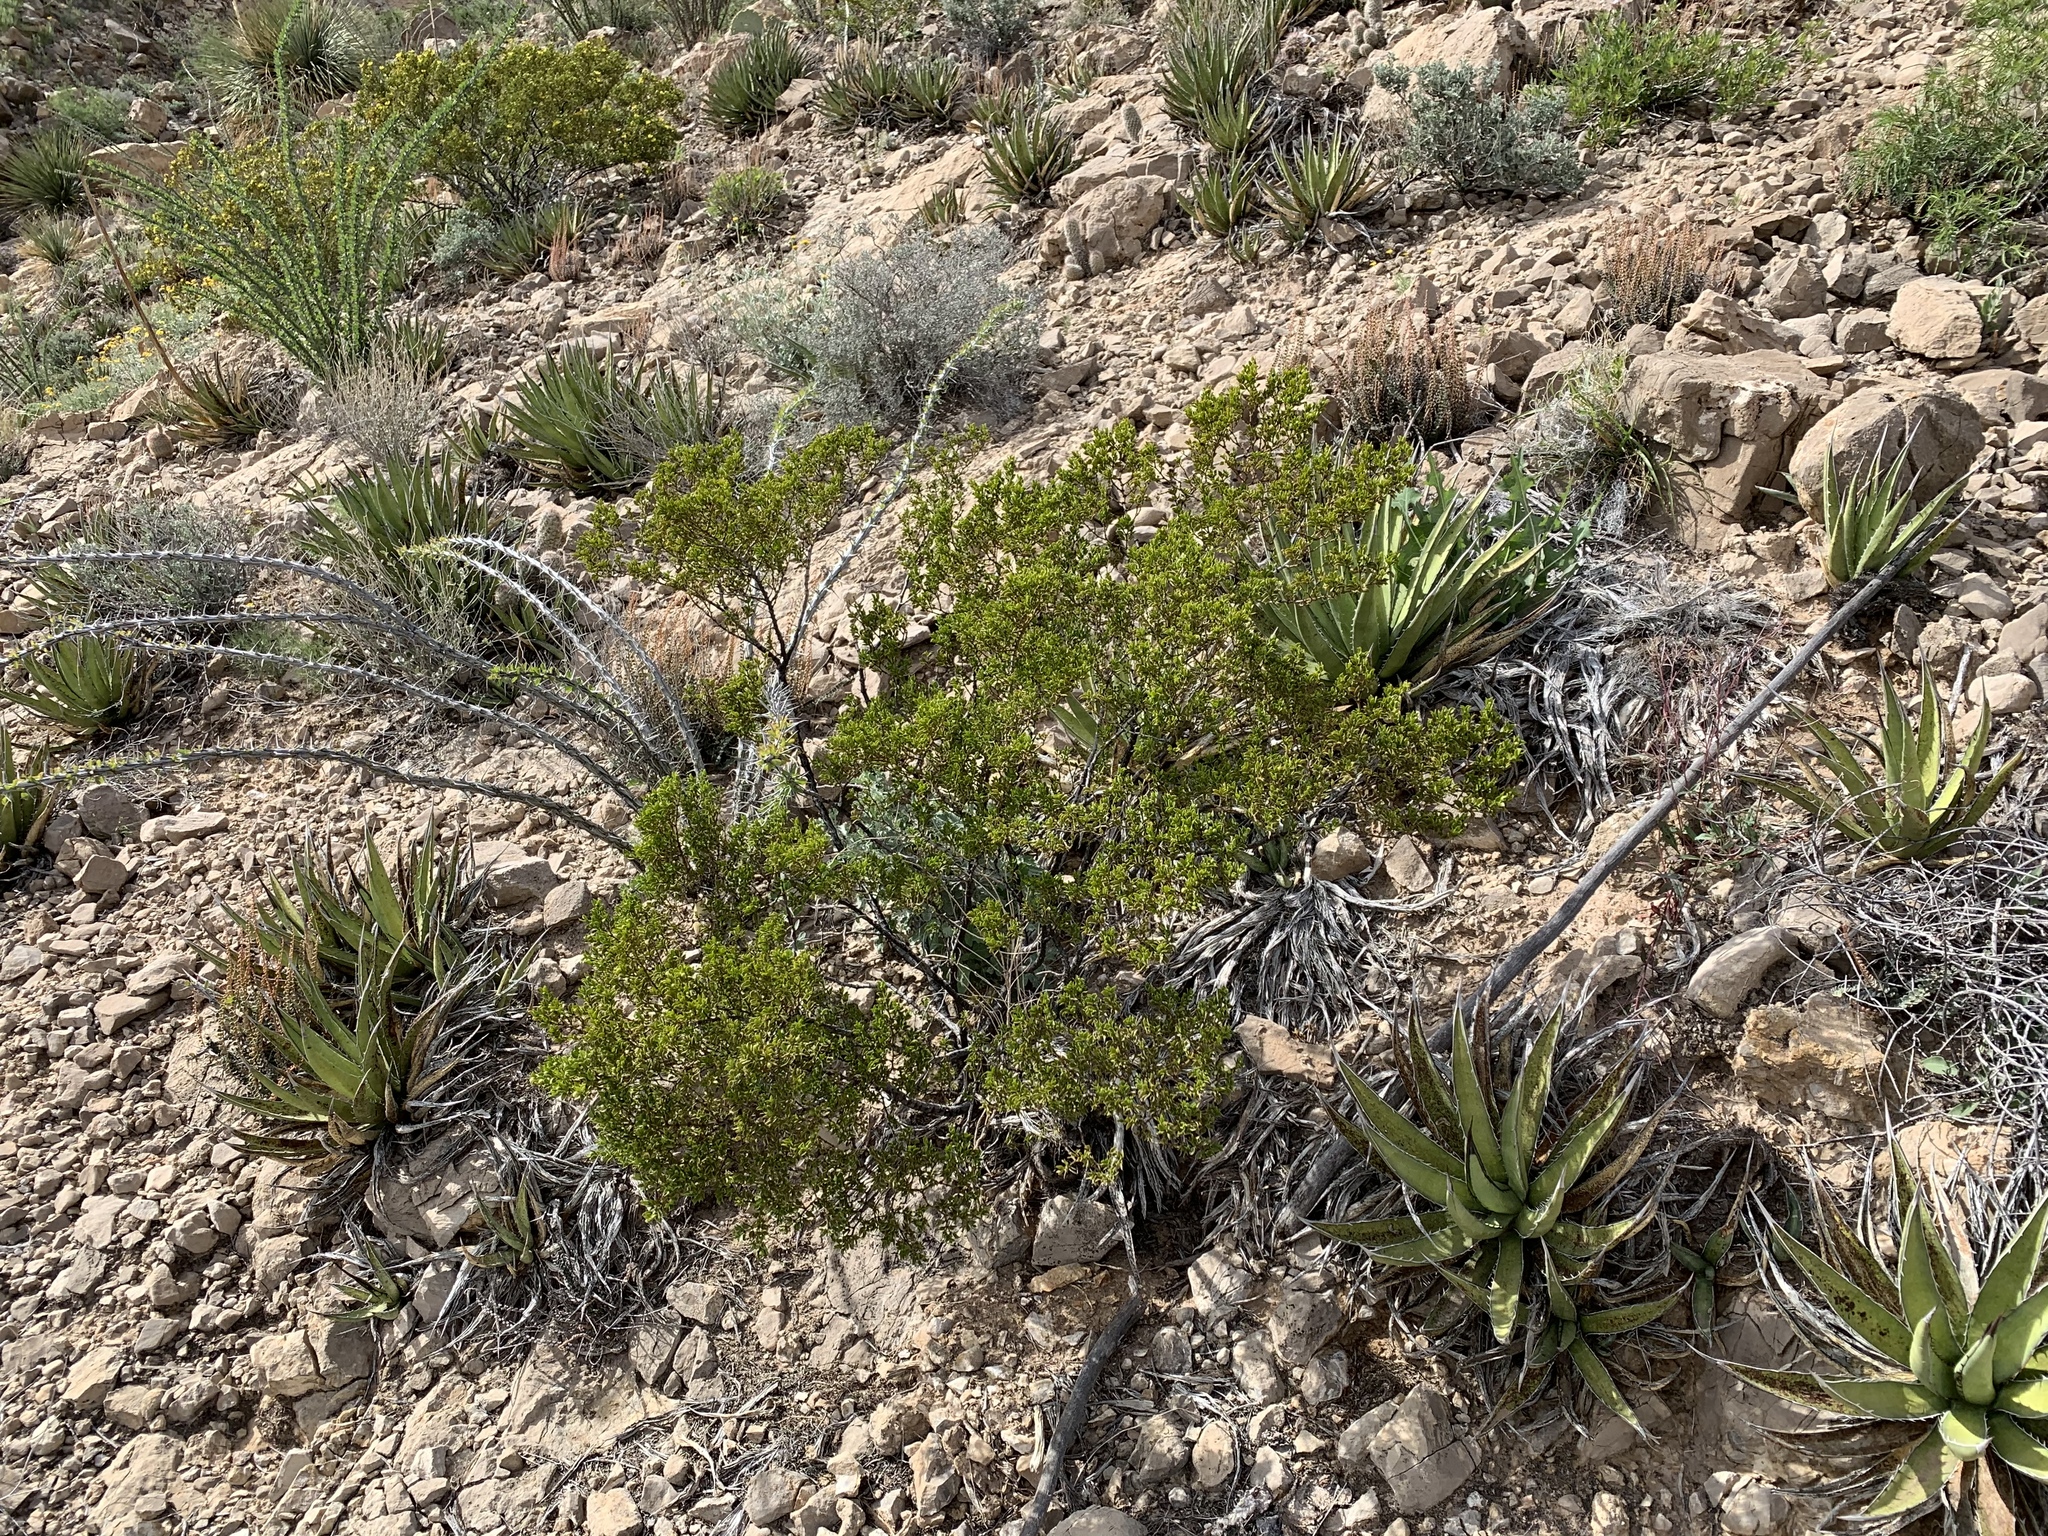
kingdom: Plantae
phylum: Tracheophyta
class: Magnoliopsida
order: Zygophyllales
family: Zygophyllaceae
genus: Larrea
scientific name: Larrea tridentata
